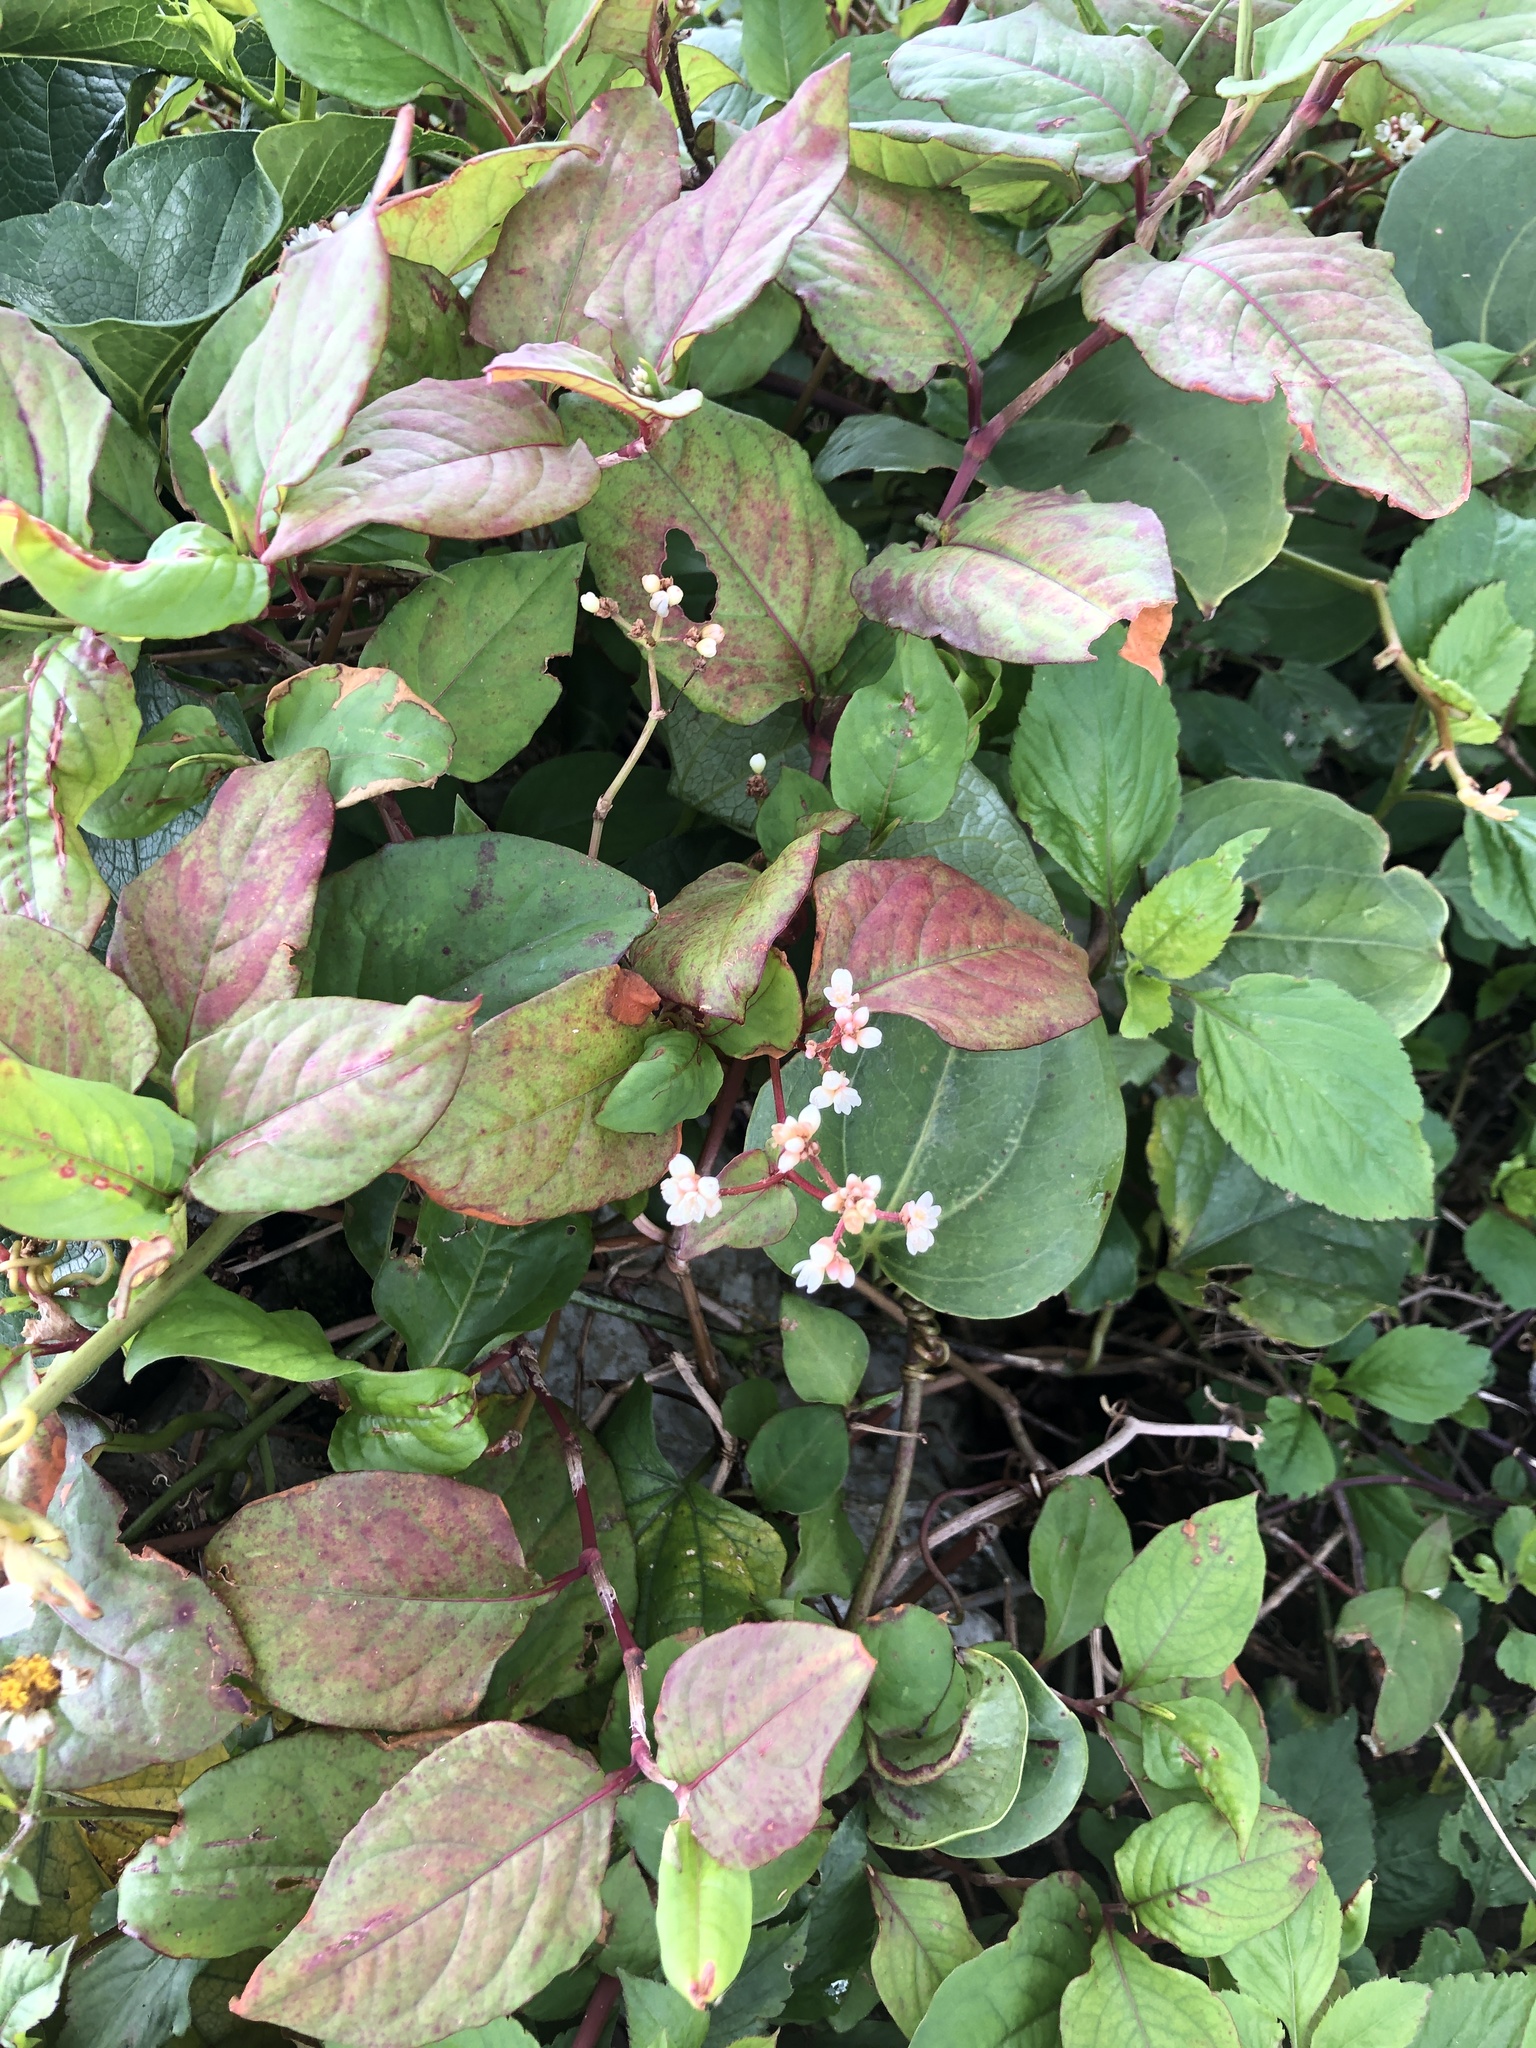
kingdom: Plantae
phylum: Tracheophyta
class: Magnoliopsida
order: Caryophyllales
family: Polygonaceae
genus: Persicaria
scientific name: Persicaria chinensis
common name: Chinese knotweed
